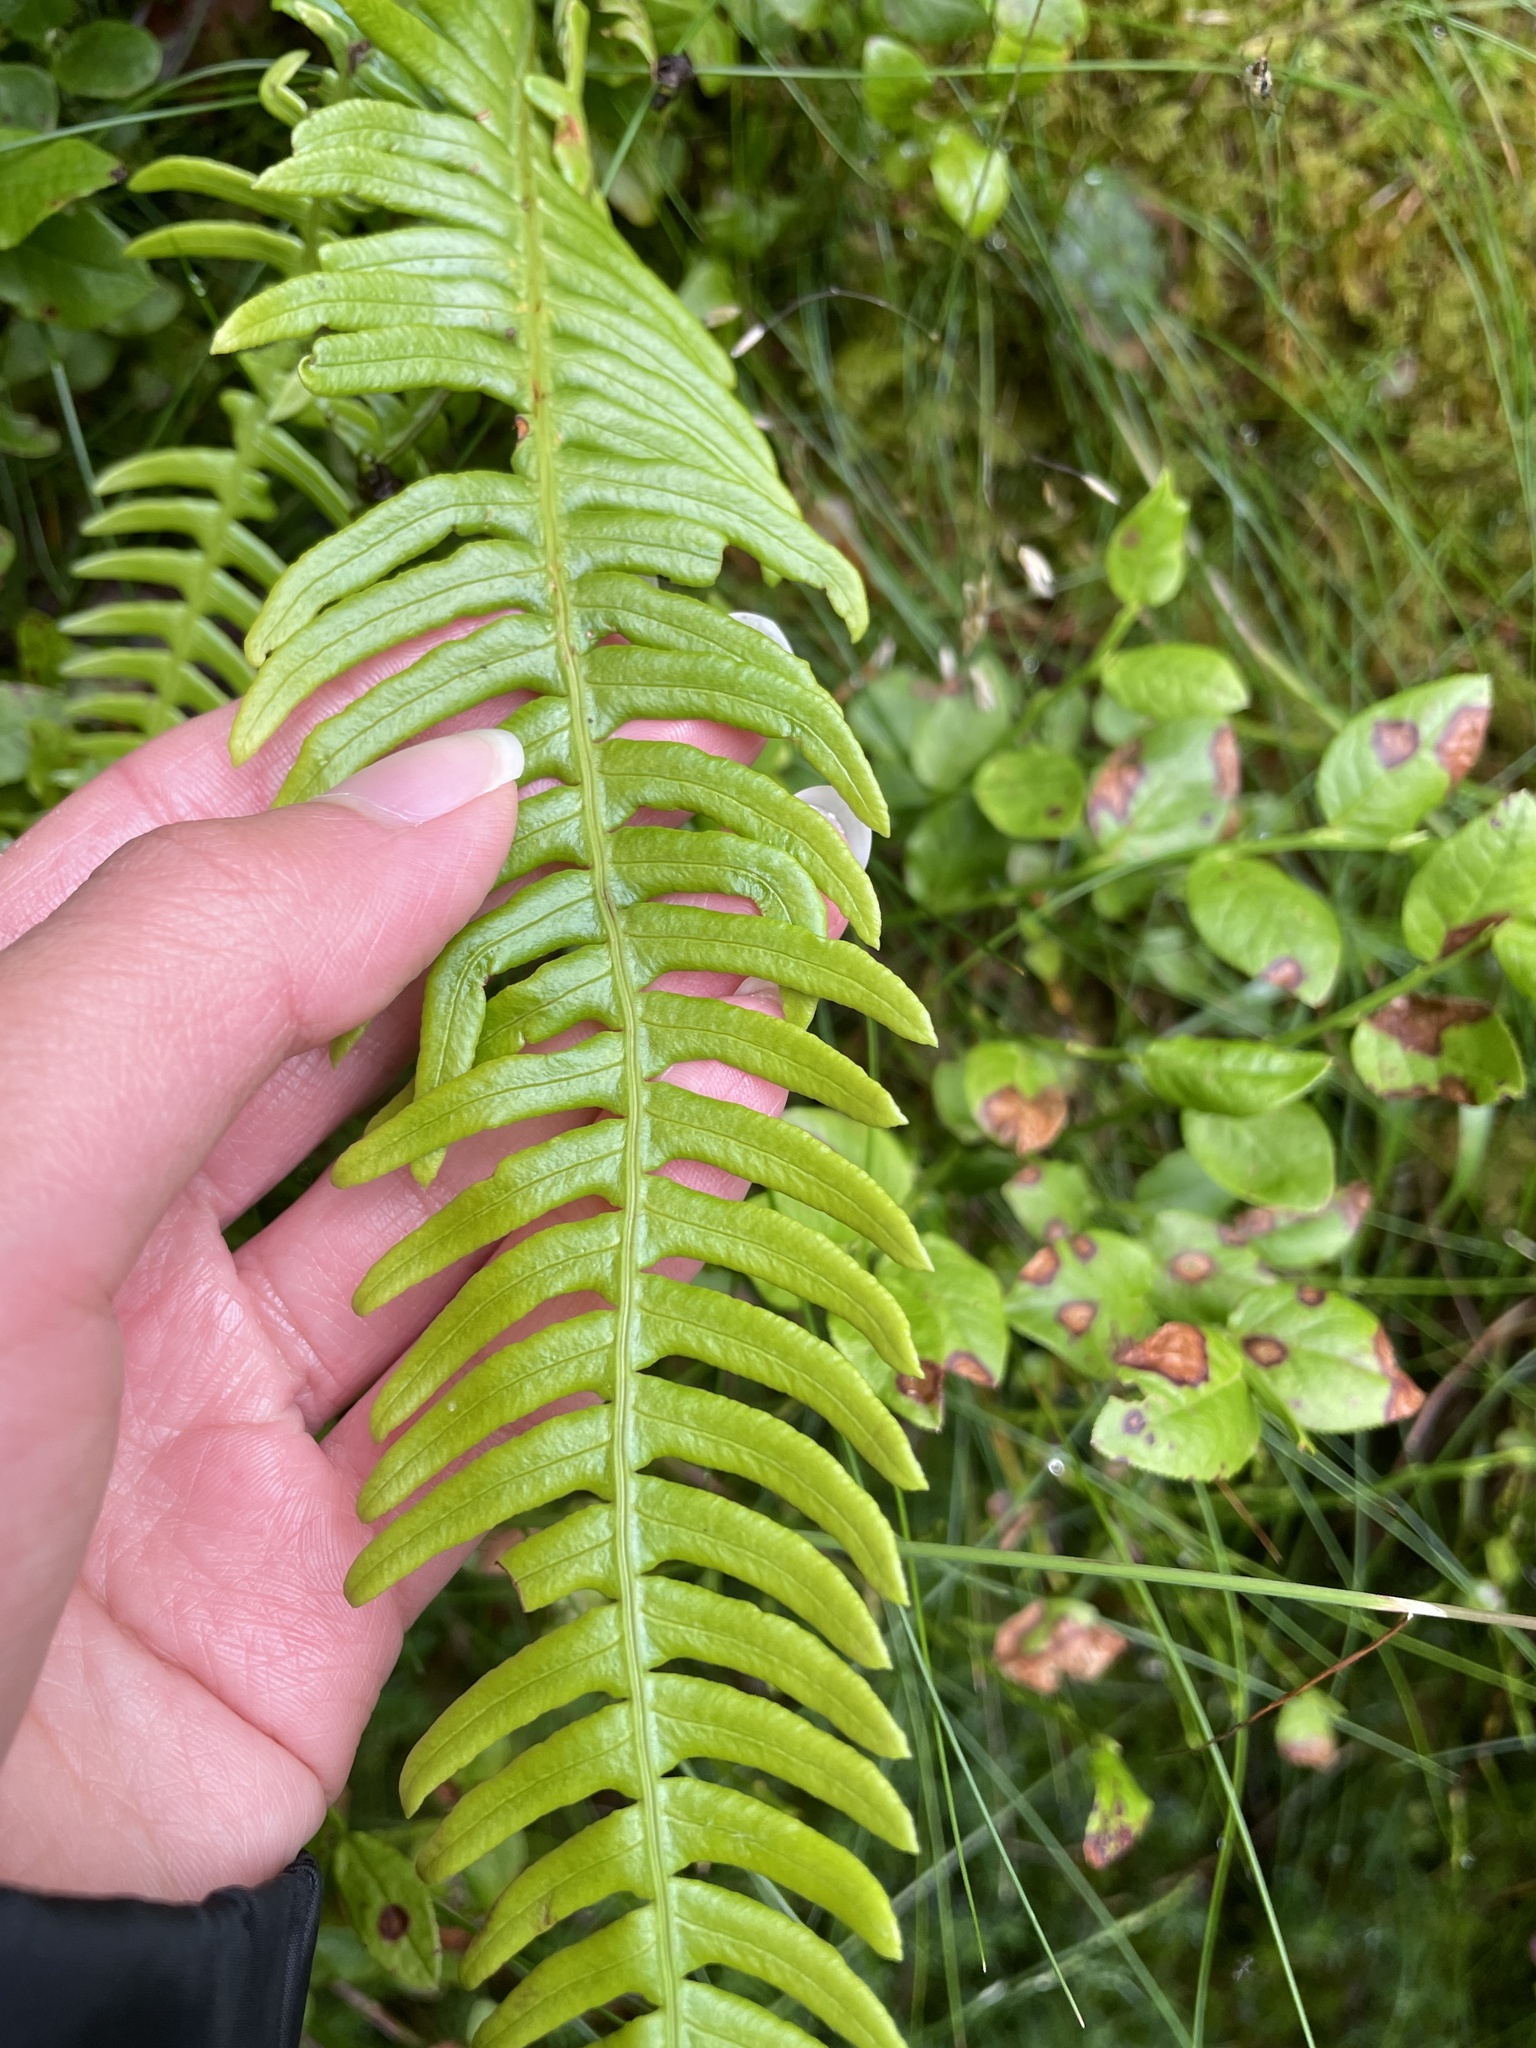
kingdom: Plantae
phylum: Tracheophyta
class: Polypodiopsida
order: Polypodiales
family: Blechnaceae
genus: Struthiopteris
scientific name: Struthiopteris spicant
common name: Deer fern
